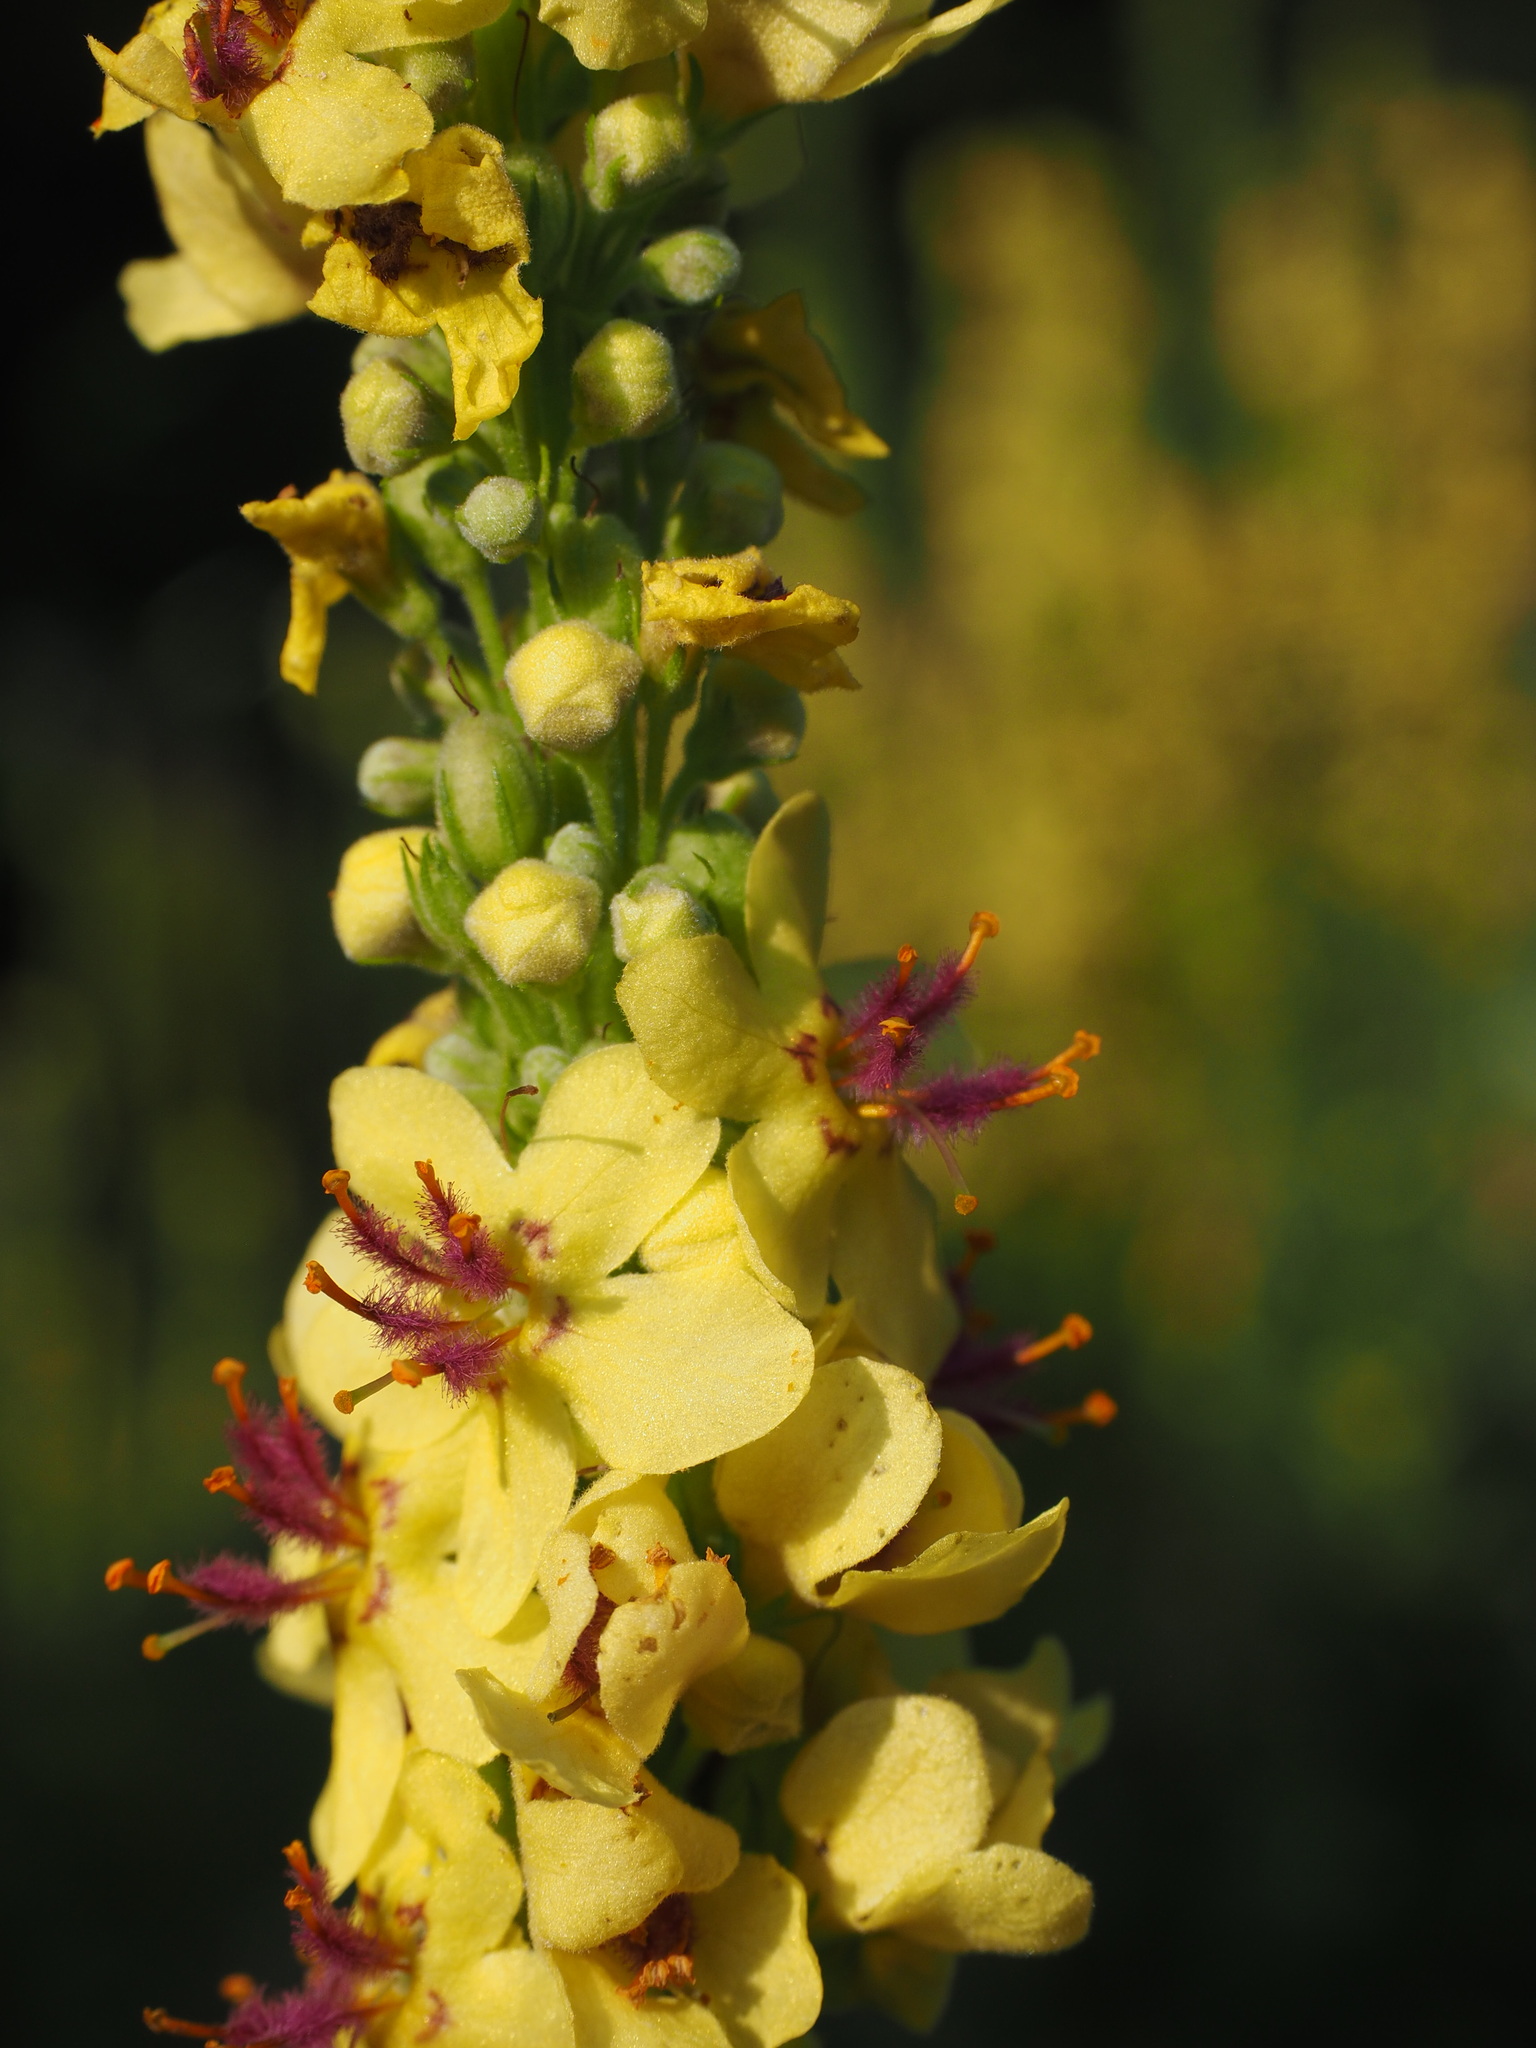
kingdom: Plantae
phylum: Tracheophyta
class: Magnoliopsida
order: Lamiales
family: Scrophulariaceae
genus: Verbascum
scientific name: Verbascum nigrum
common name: Dark mullein
